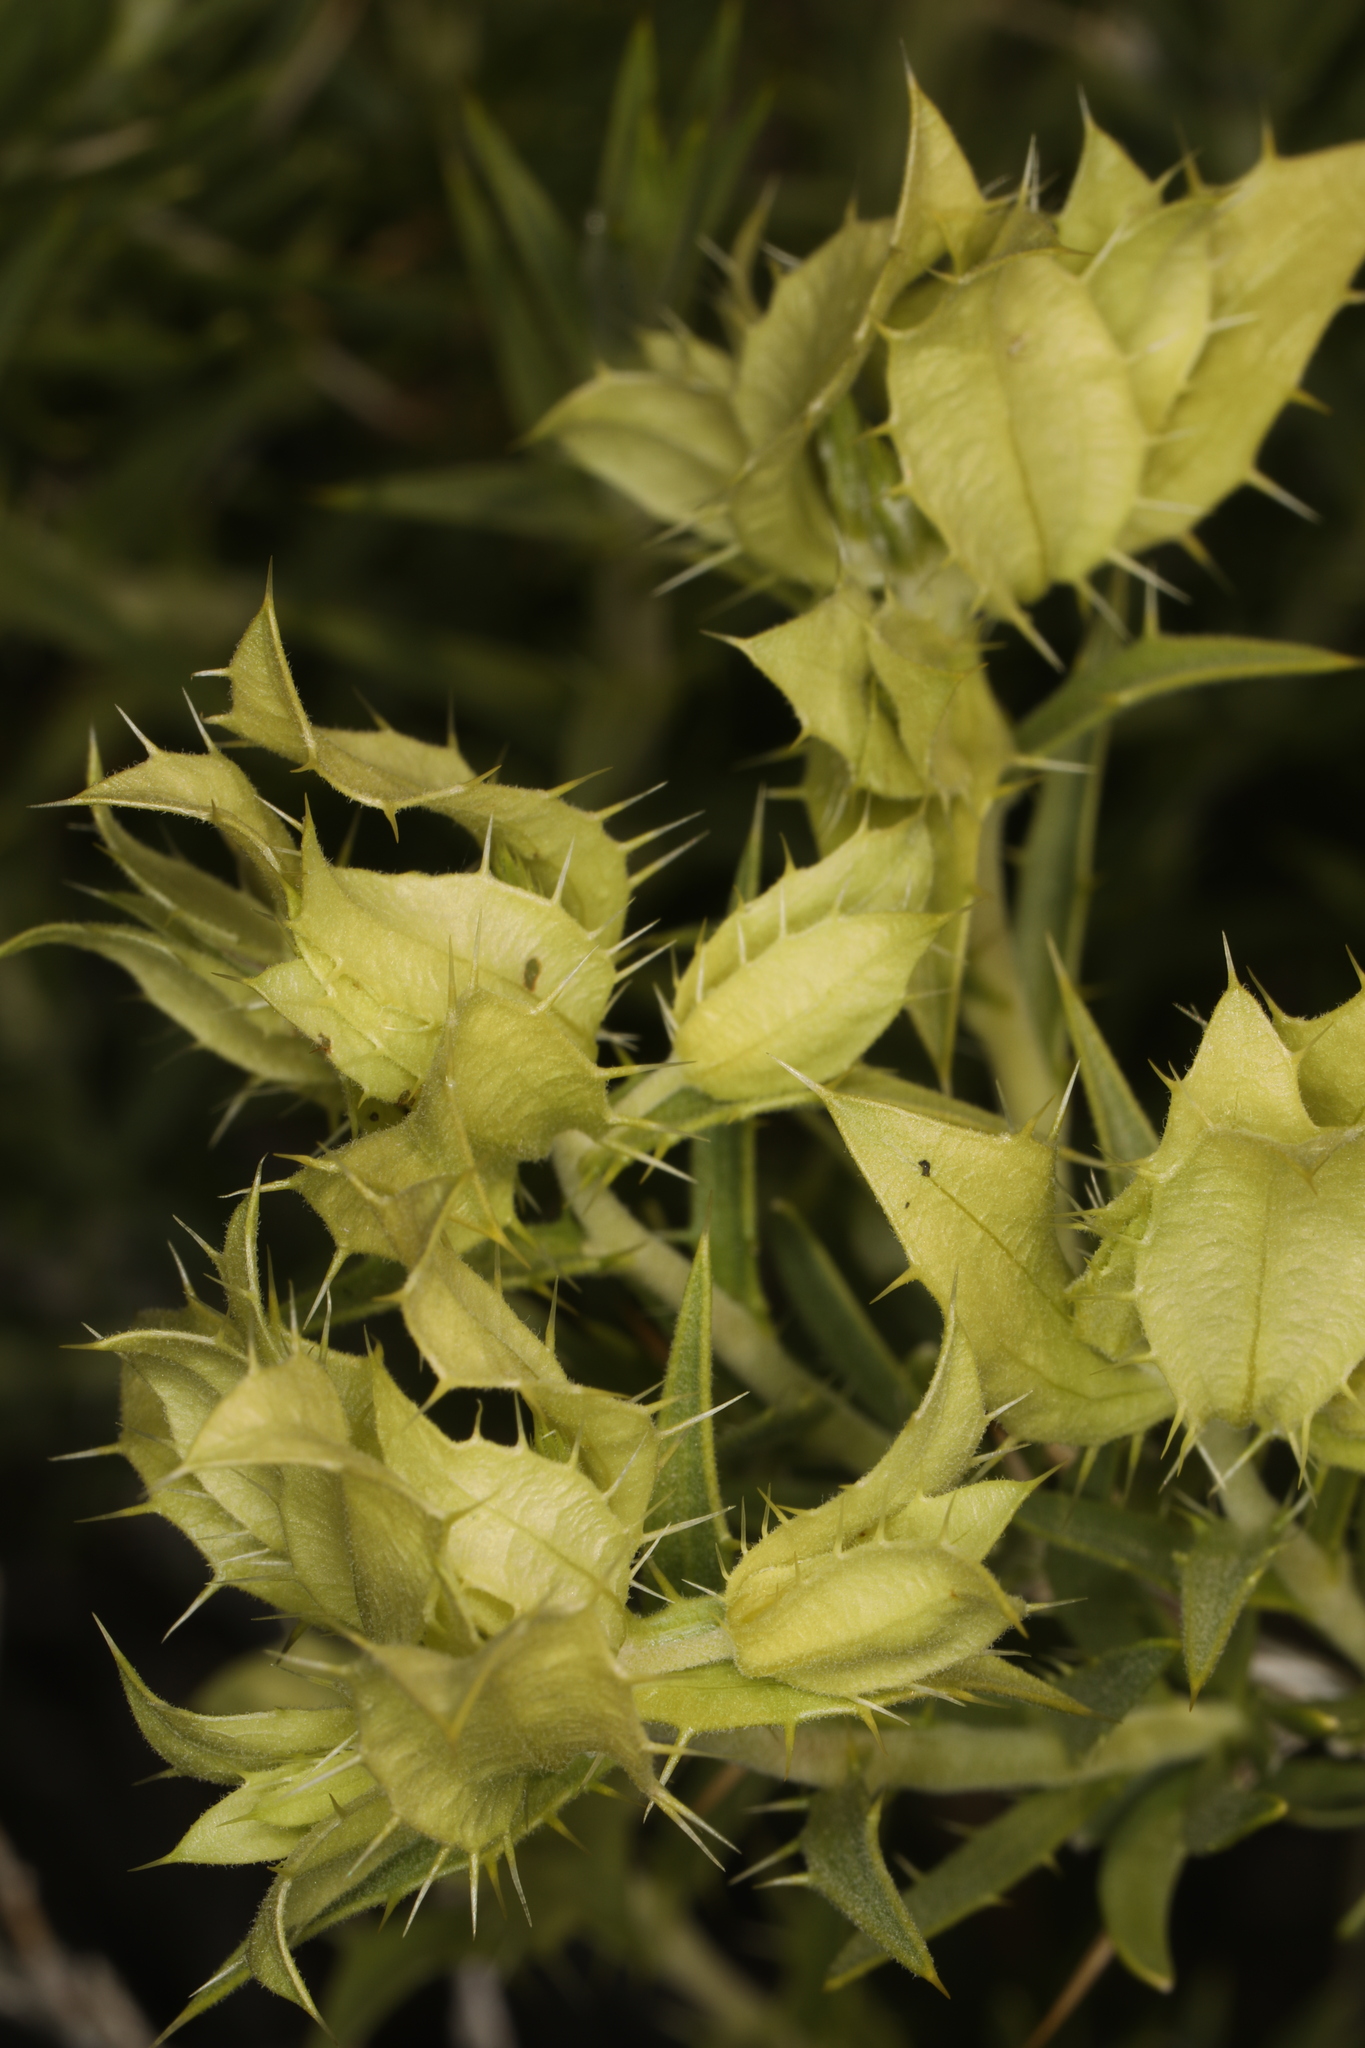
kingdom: Plantae
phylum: Tracheophyta
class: Magnoliopsida
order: Asterales
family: Asteraceae
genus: Hecastocleis
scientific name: Hecastocleis shockleyi
